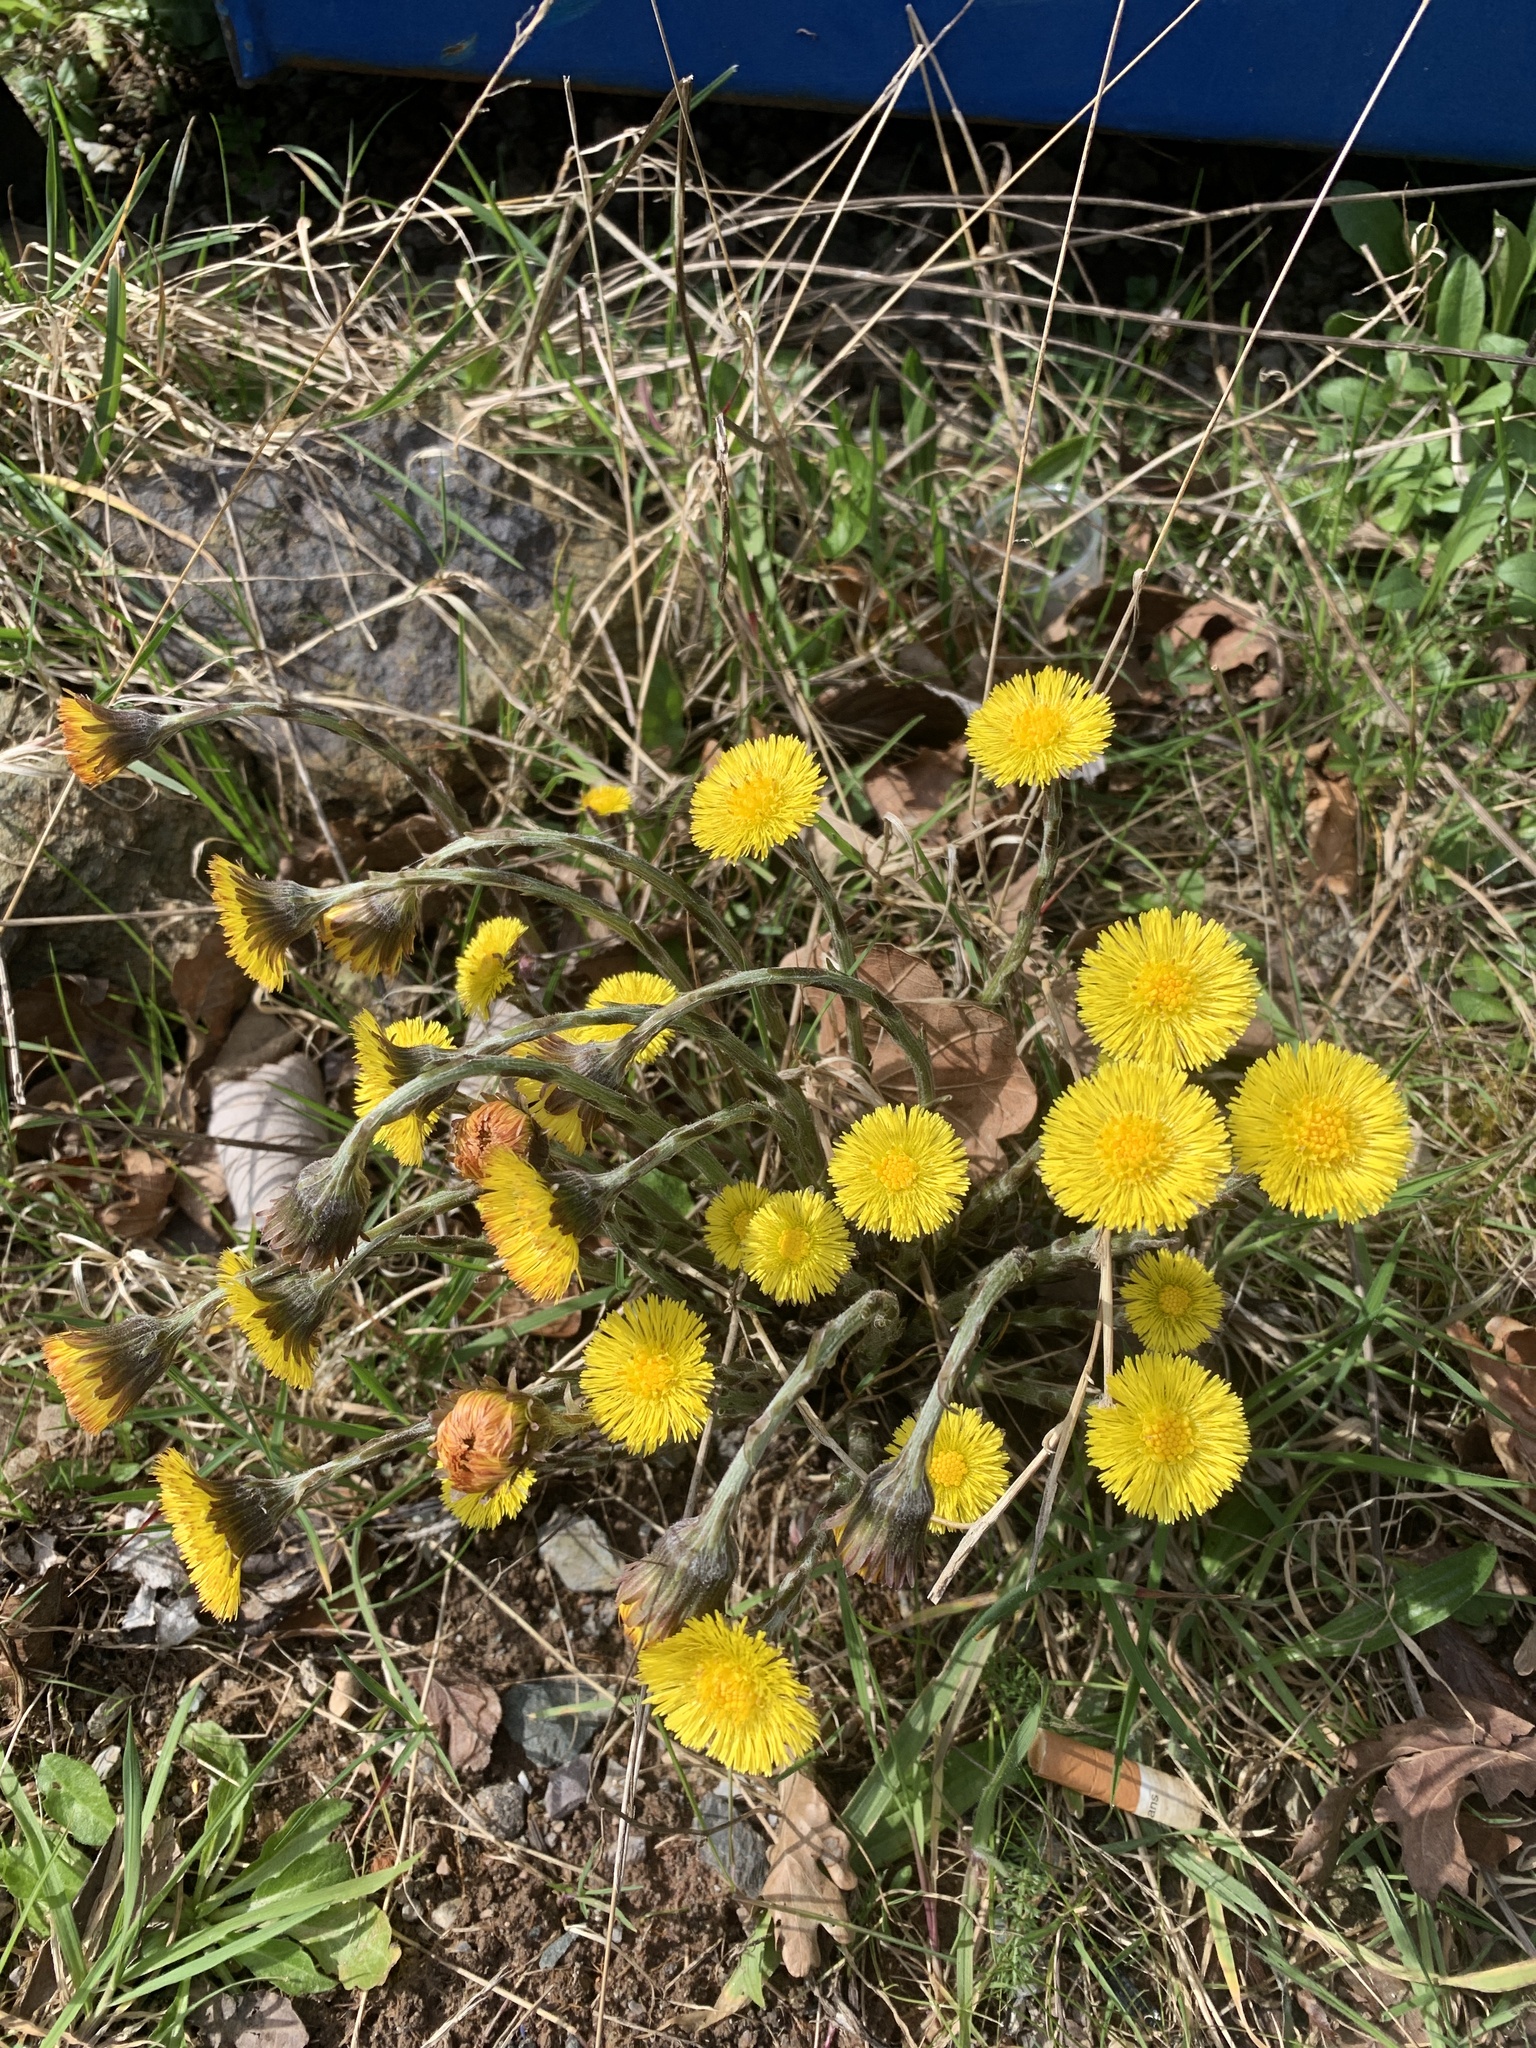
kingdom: Plantae
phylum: Tracheophyta
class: Magnoliopsida
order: Asterales
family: Asteraceae
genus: Tussilago
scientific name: Tussilago farfara
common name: Coltsfoot
